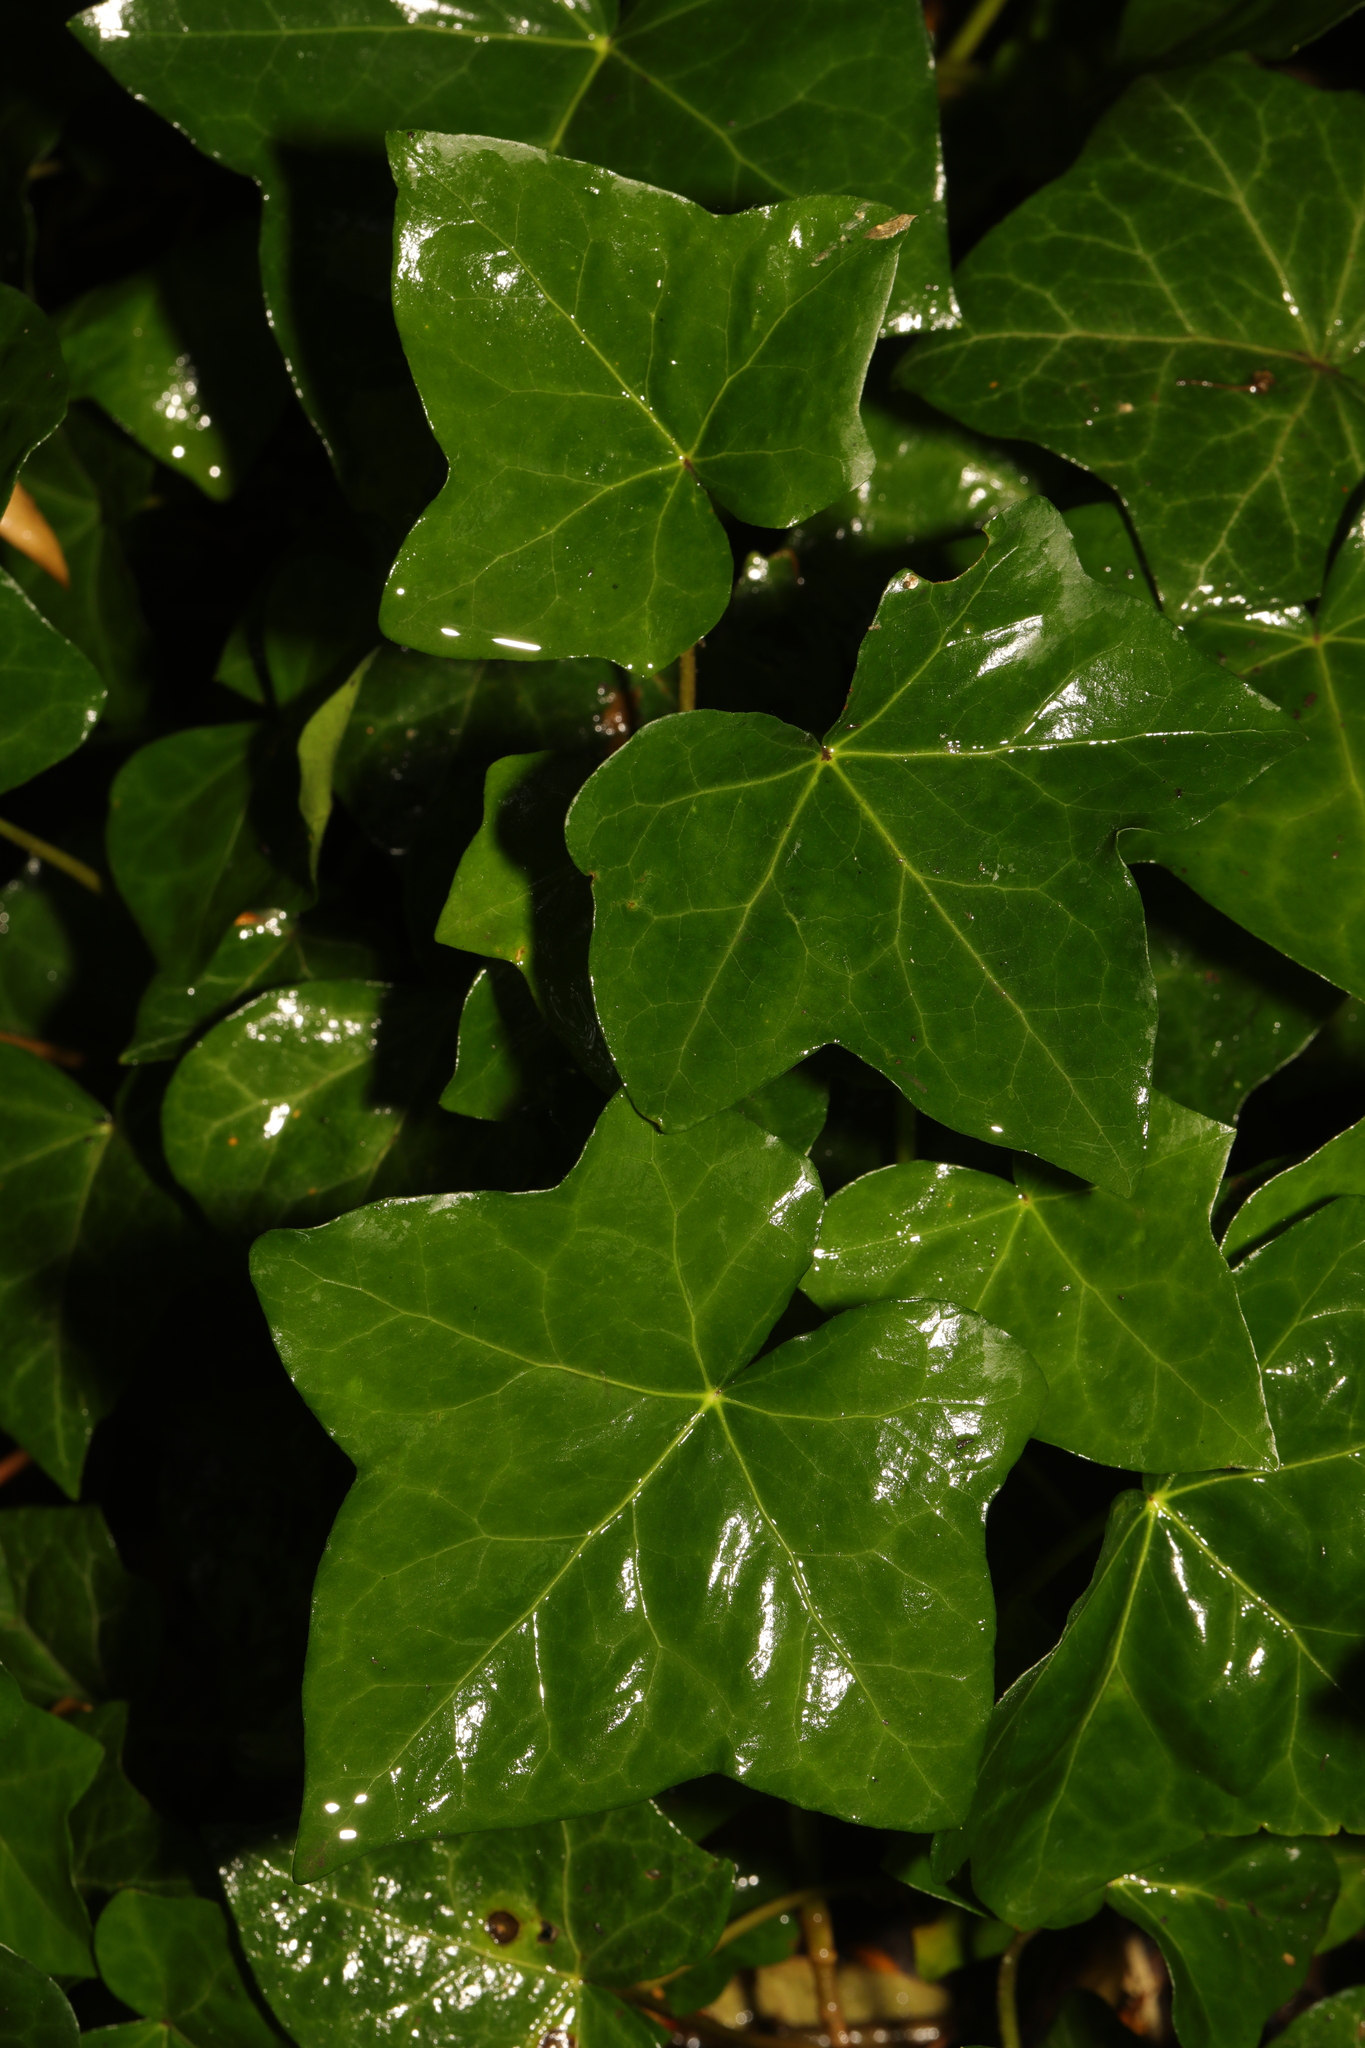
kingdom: Plantae
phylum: Tracheophyta
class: Magnoliopsida
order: Apiales
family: Araliaceae
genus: Hedera
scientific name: Hedera helix
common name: Ivy
